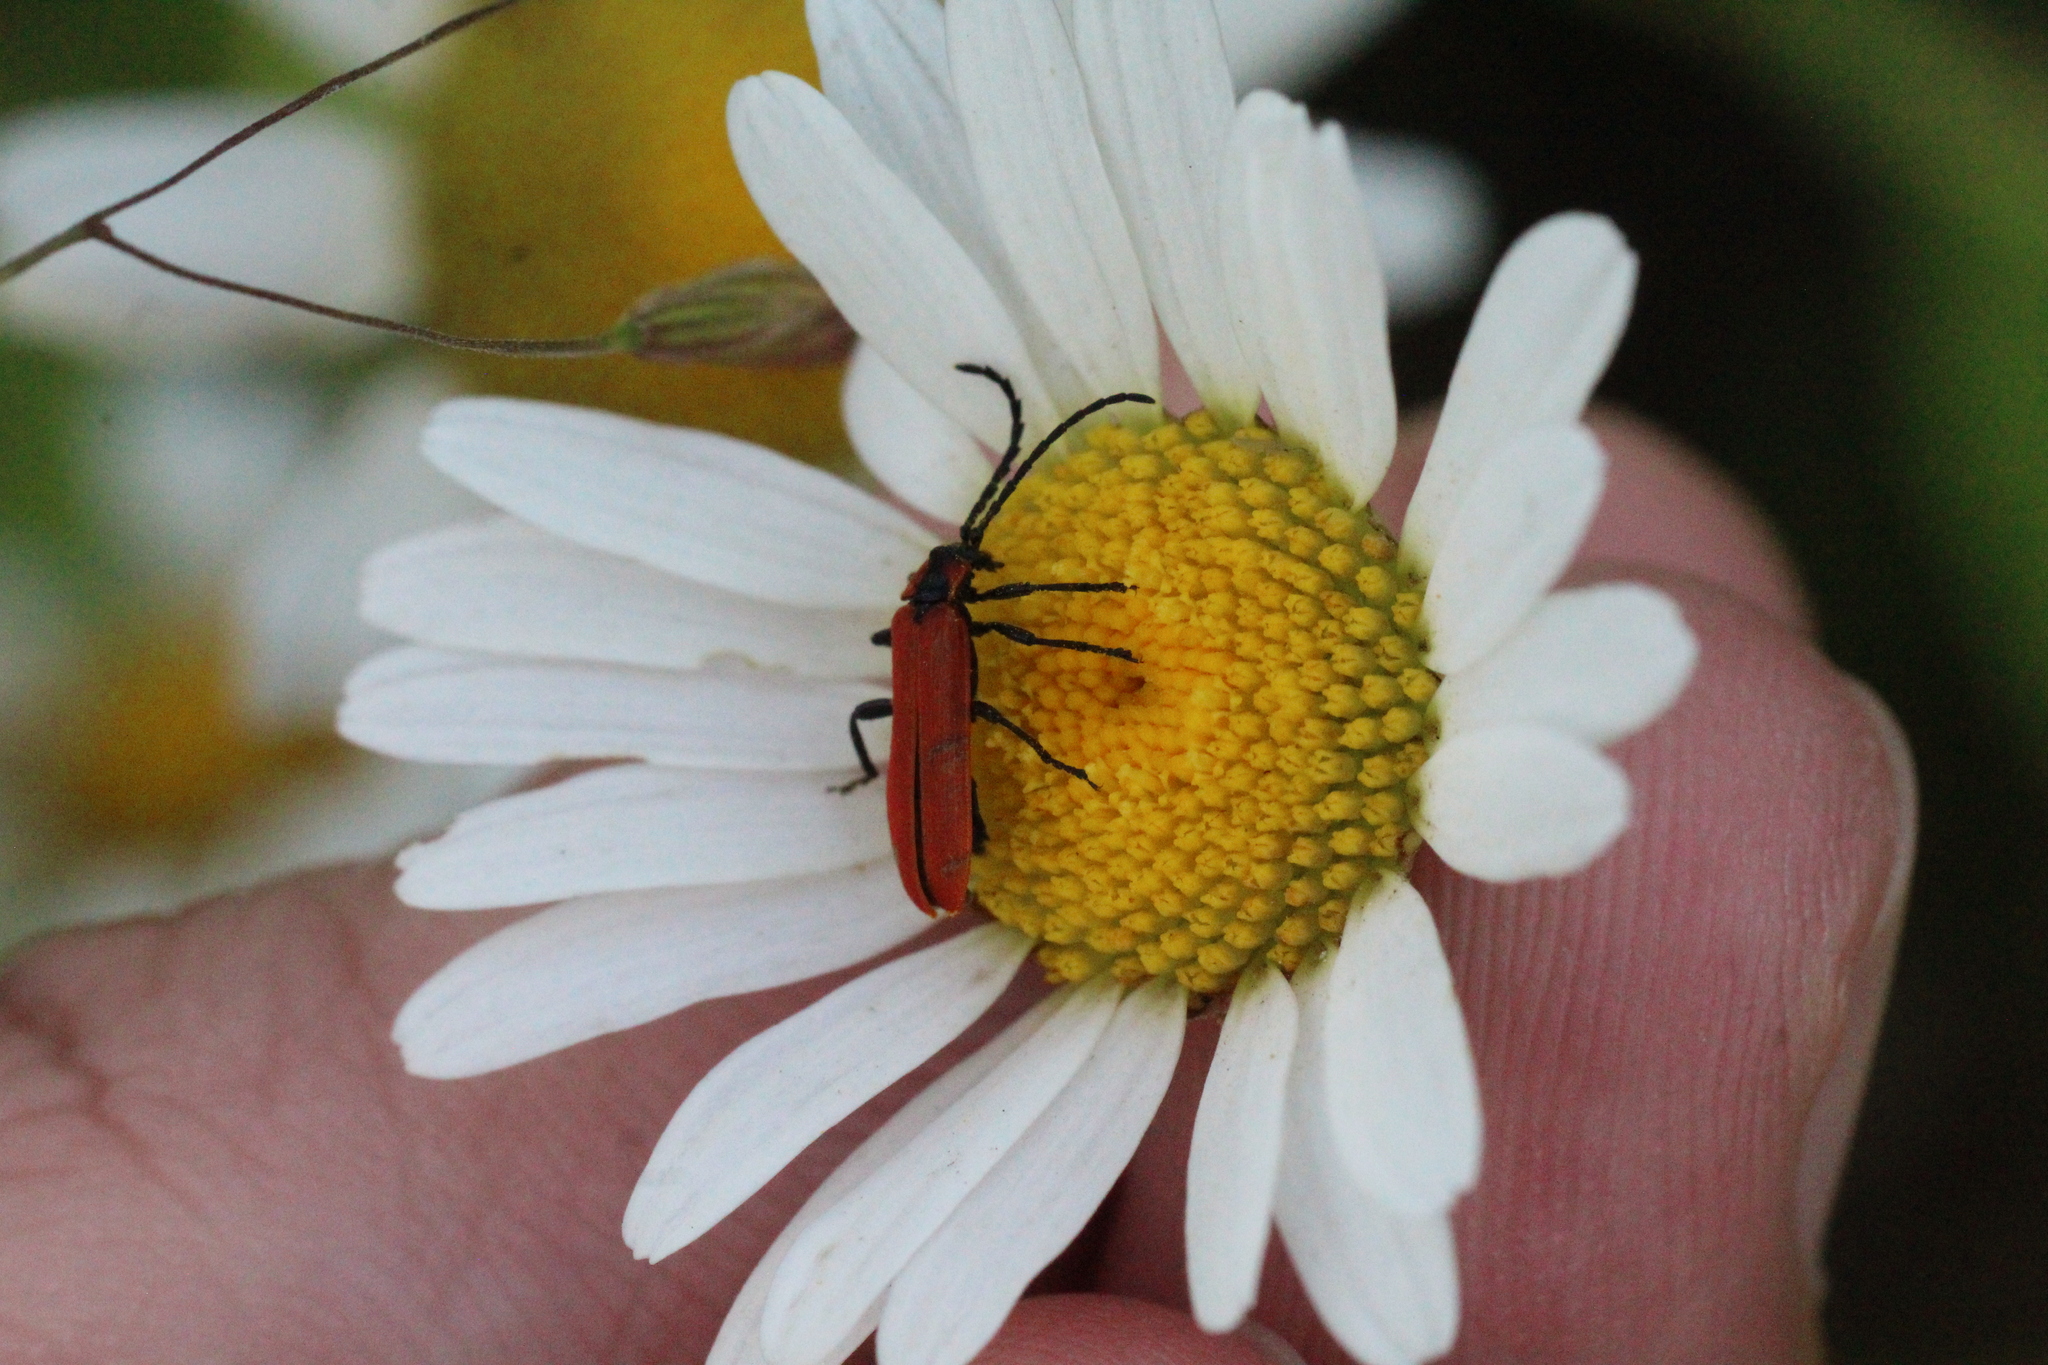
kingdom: Animalia
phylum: Arthropoda
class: Insecta
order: Coleoptera
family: Lycidae
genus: Lygistopterus
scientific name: Lygistopterus sanguineus
